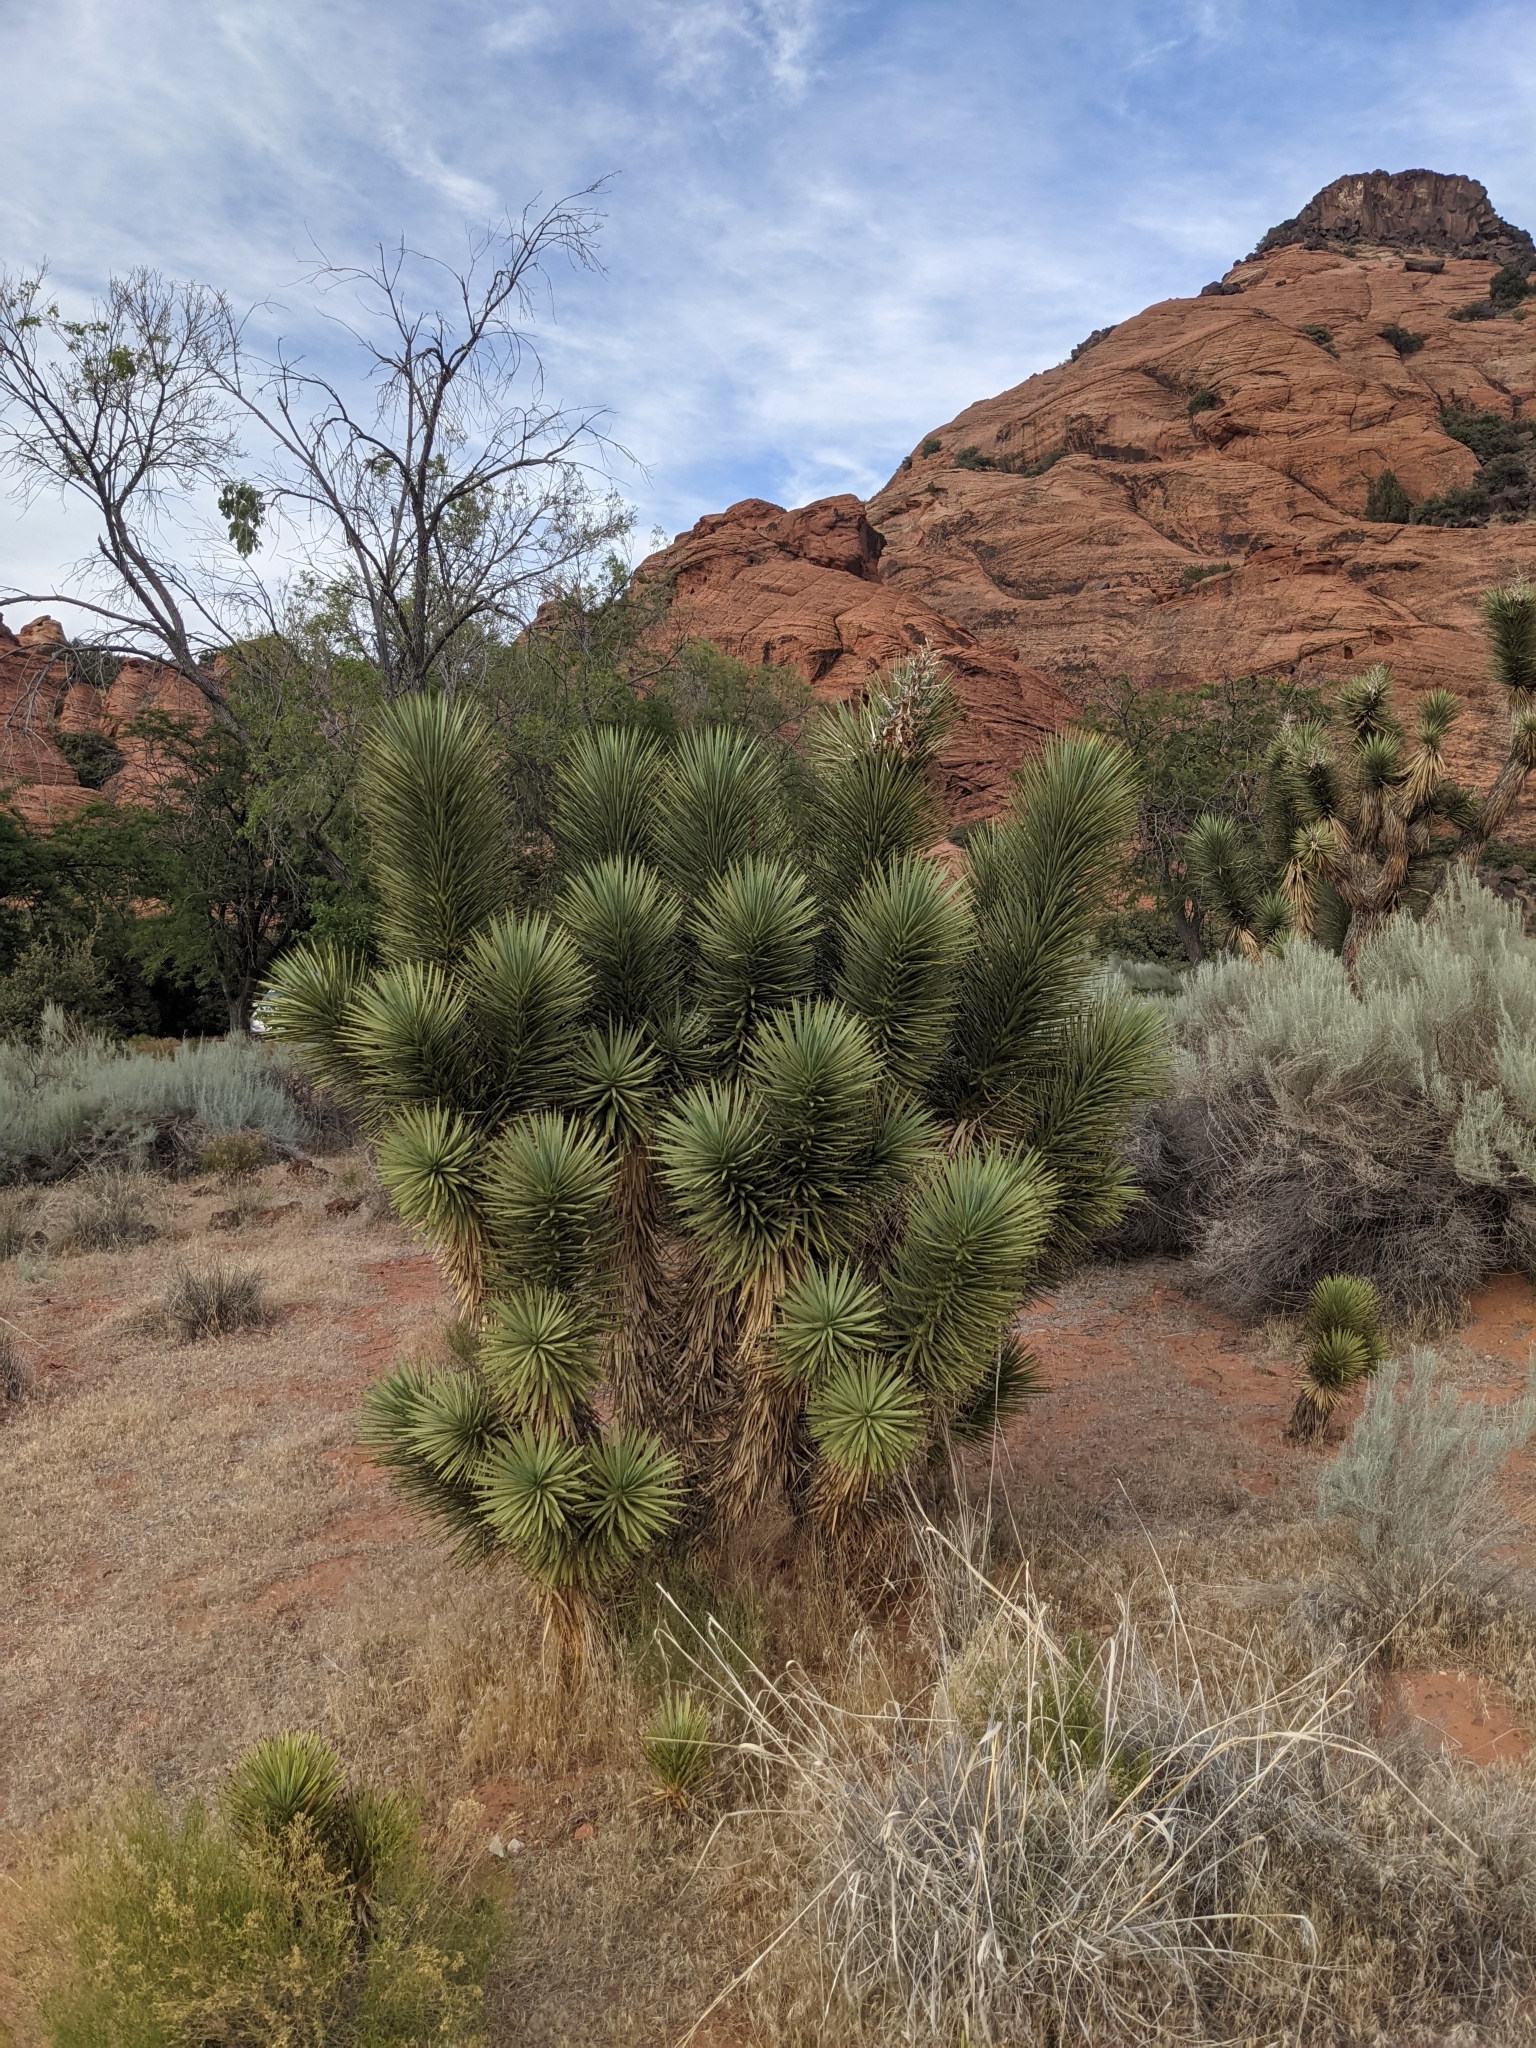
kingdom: Plantae
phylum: Tracheophyta
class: Liliopsida
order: Asparagales
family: Asparagaceae
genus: Yucca
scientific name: Yucca brevifolia
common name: Joshua tree
